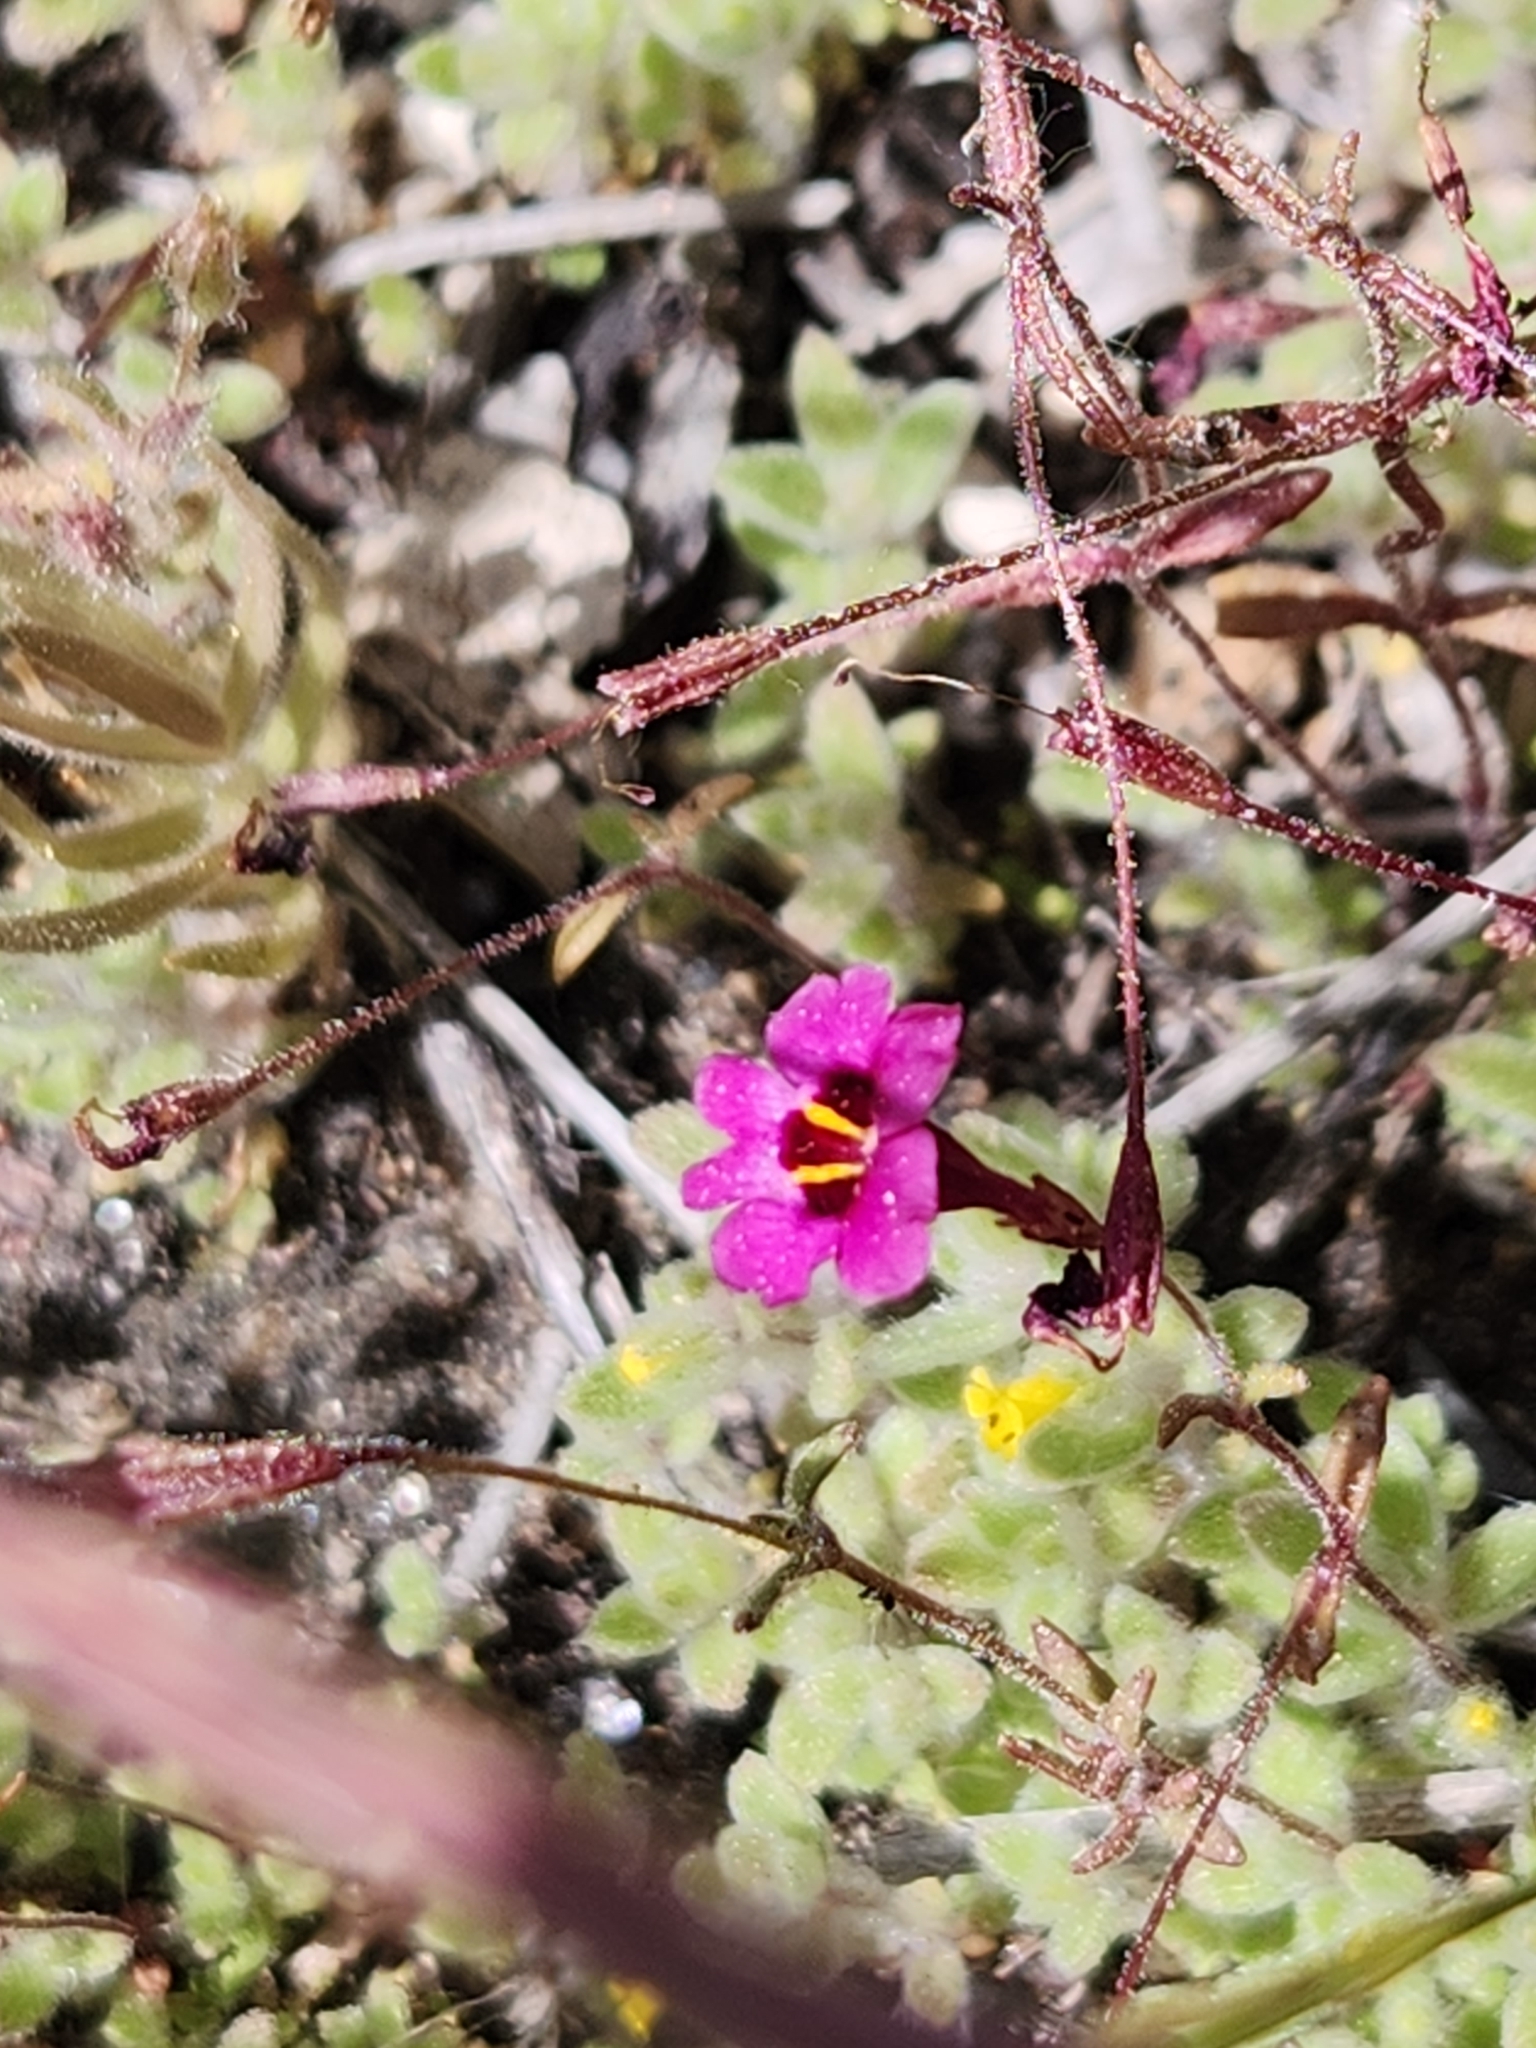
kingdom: Plantae
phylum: Tracheophyta
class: Magnoliopsida
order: Lamiales
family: Phrymaceae
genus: Erythranthe
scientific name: Erythranthe diffusa
